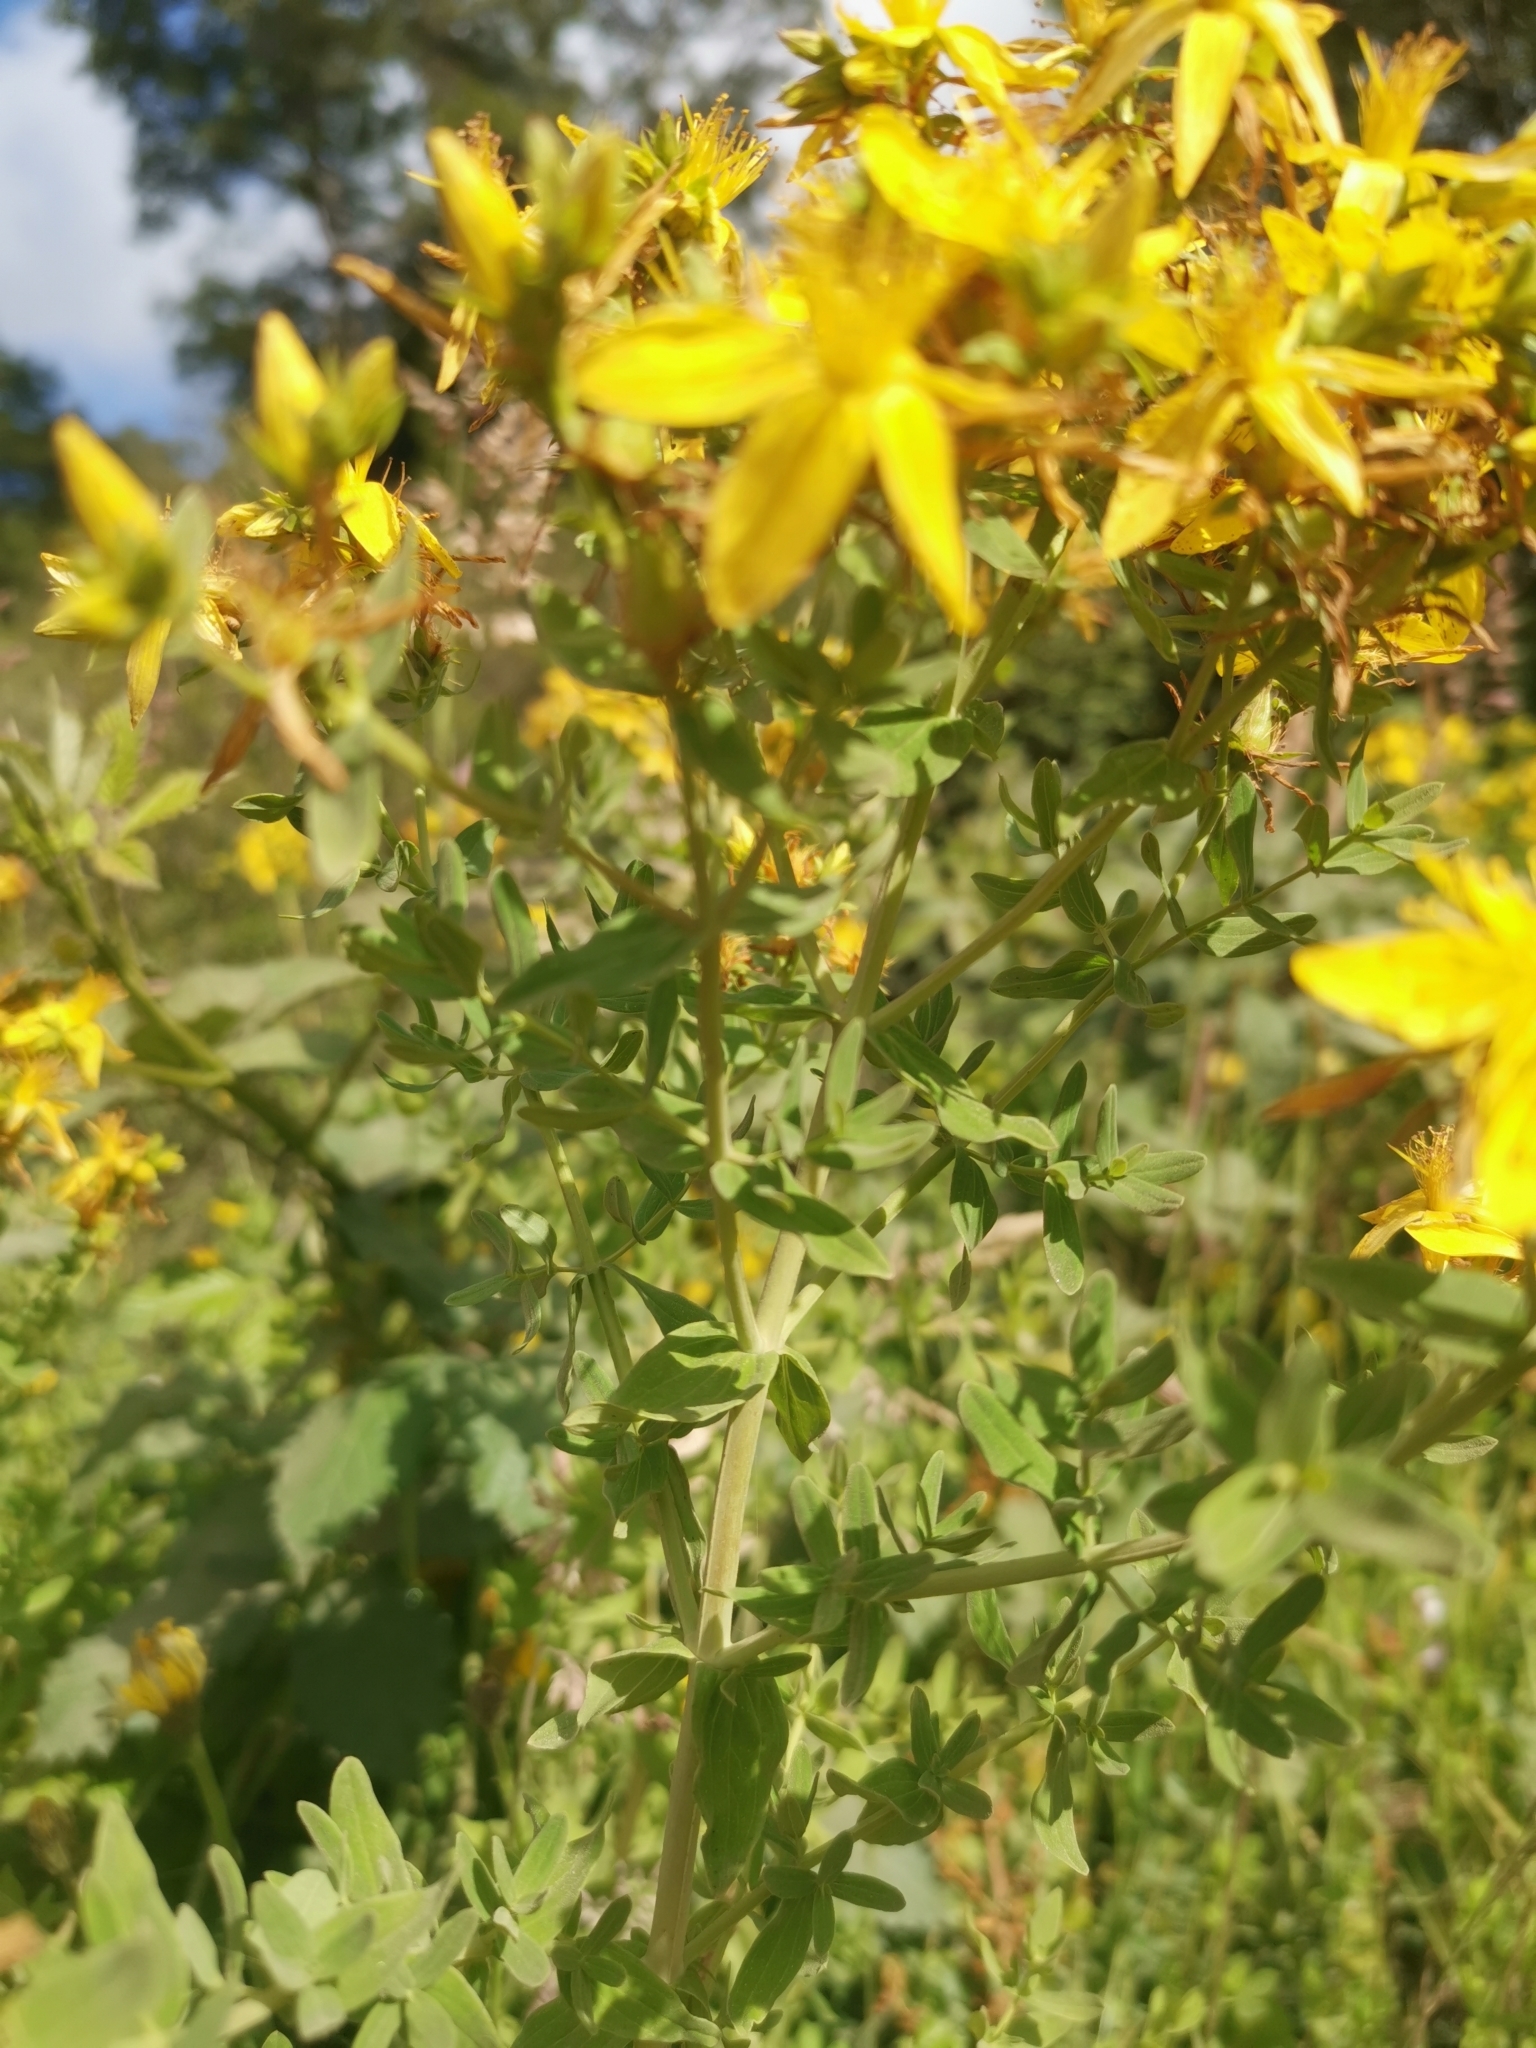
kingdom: Plantae
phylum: Tracheophyta
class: Magnoliopsida
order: Malpighiales
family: Hypericaceae
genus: Hypericum
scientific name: Hypericum perforatum
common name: Common st. johnswort
